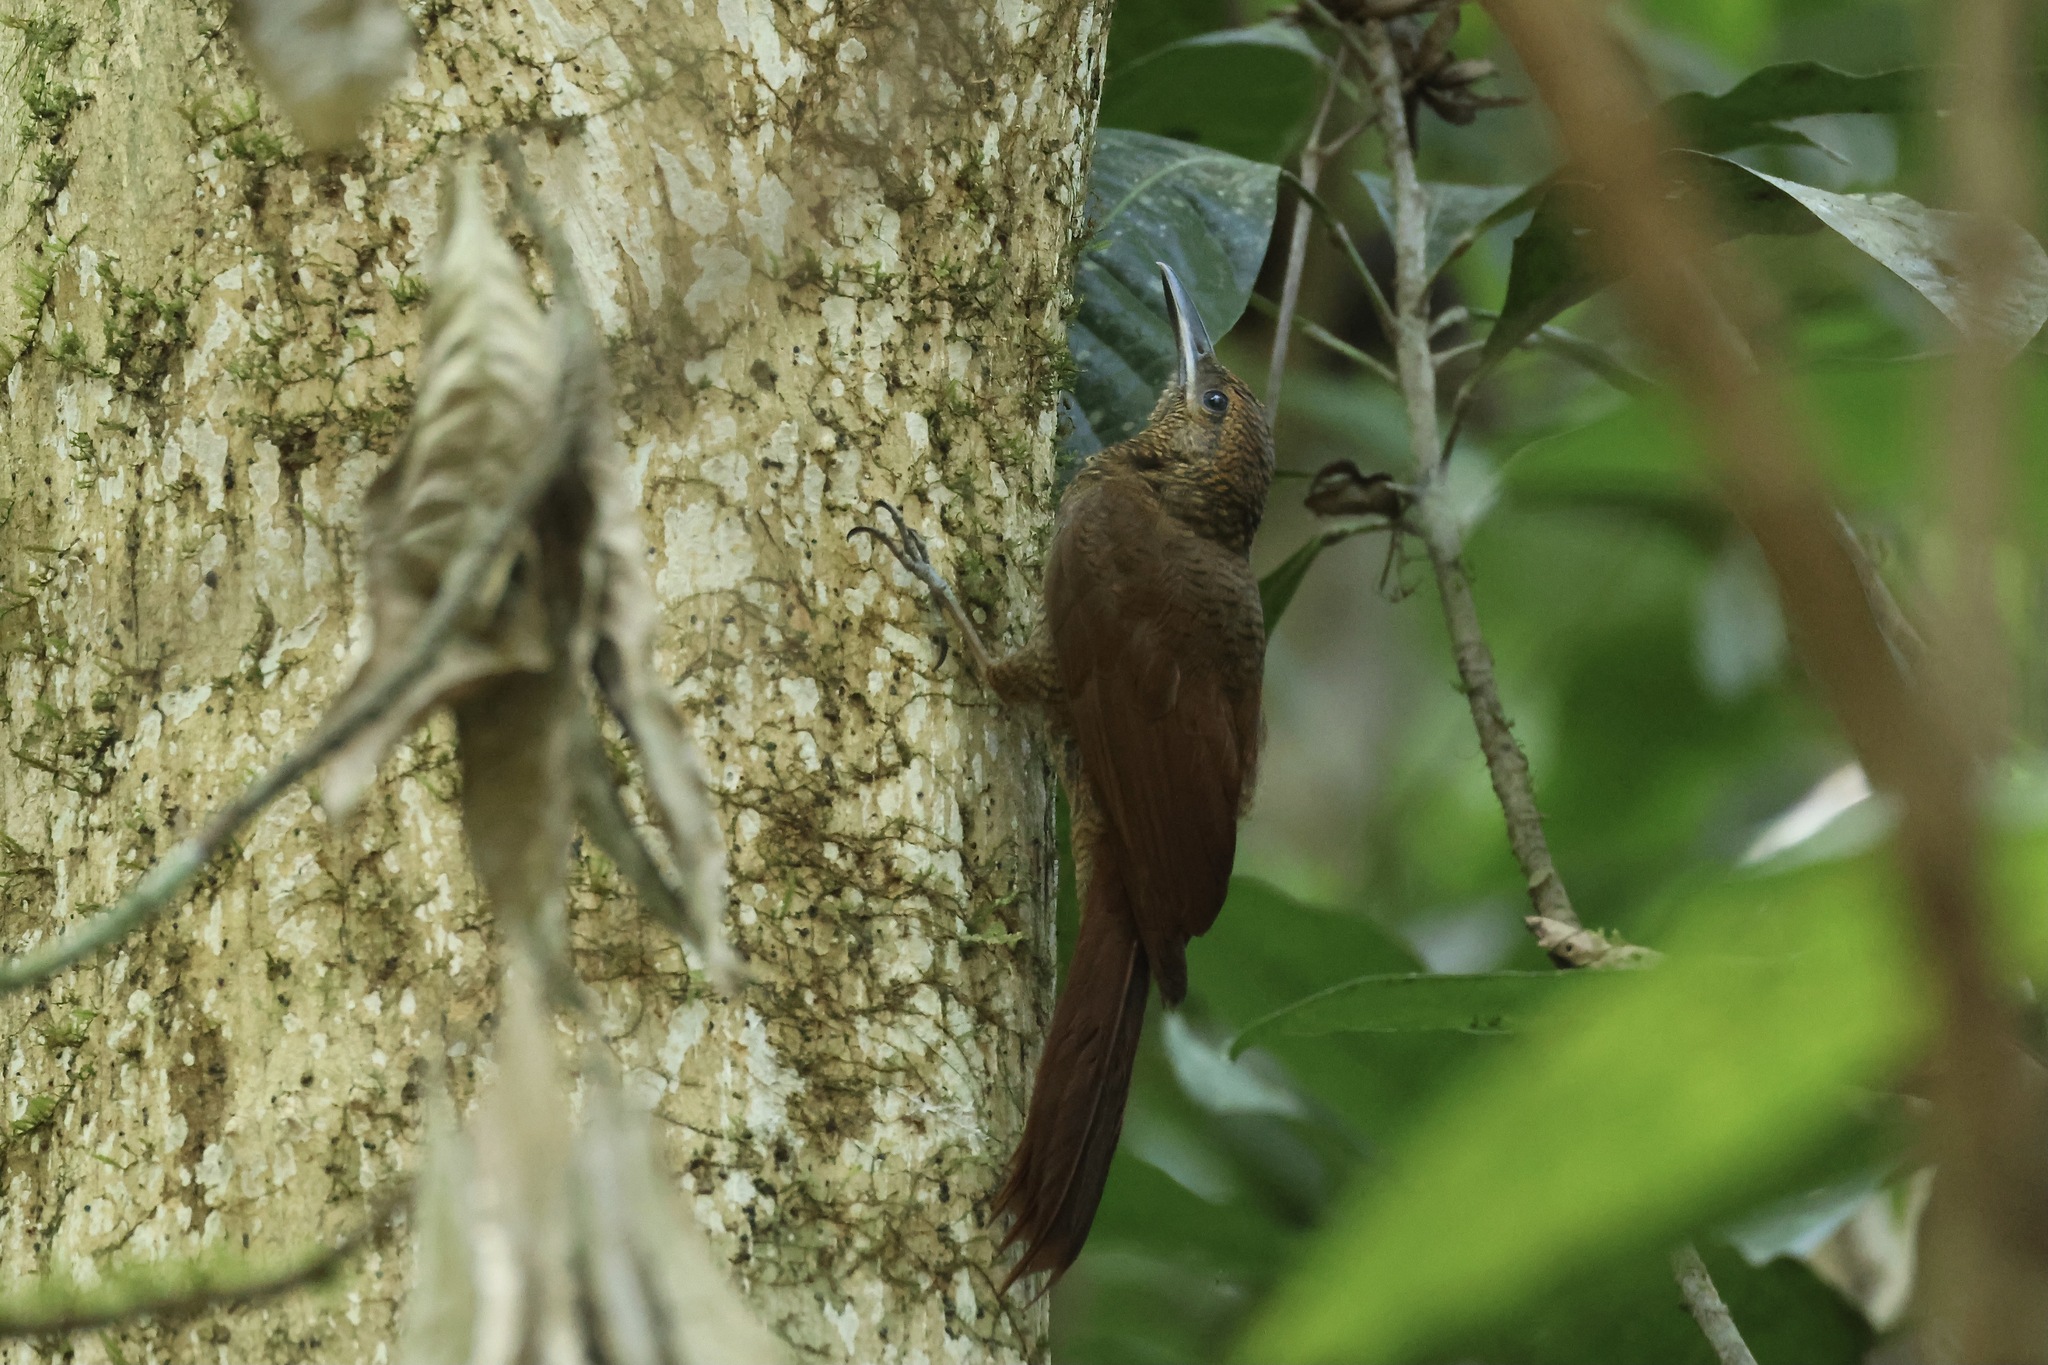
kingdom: Animalia
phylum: Chordata
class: Aves
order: Passeriformes
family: Furnariidae
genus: Dendrocolaptes
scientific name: Dendrocolaptes sanctithomae
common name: Northern barred-woodcreeper
